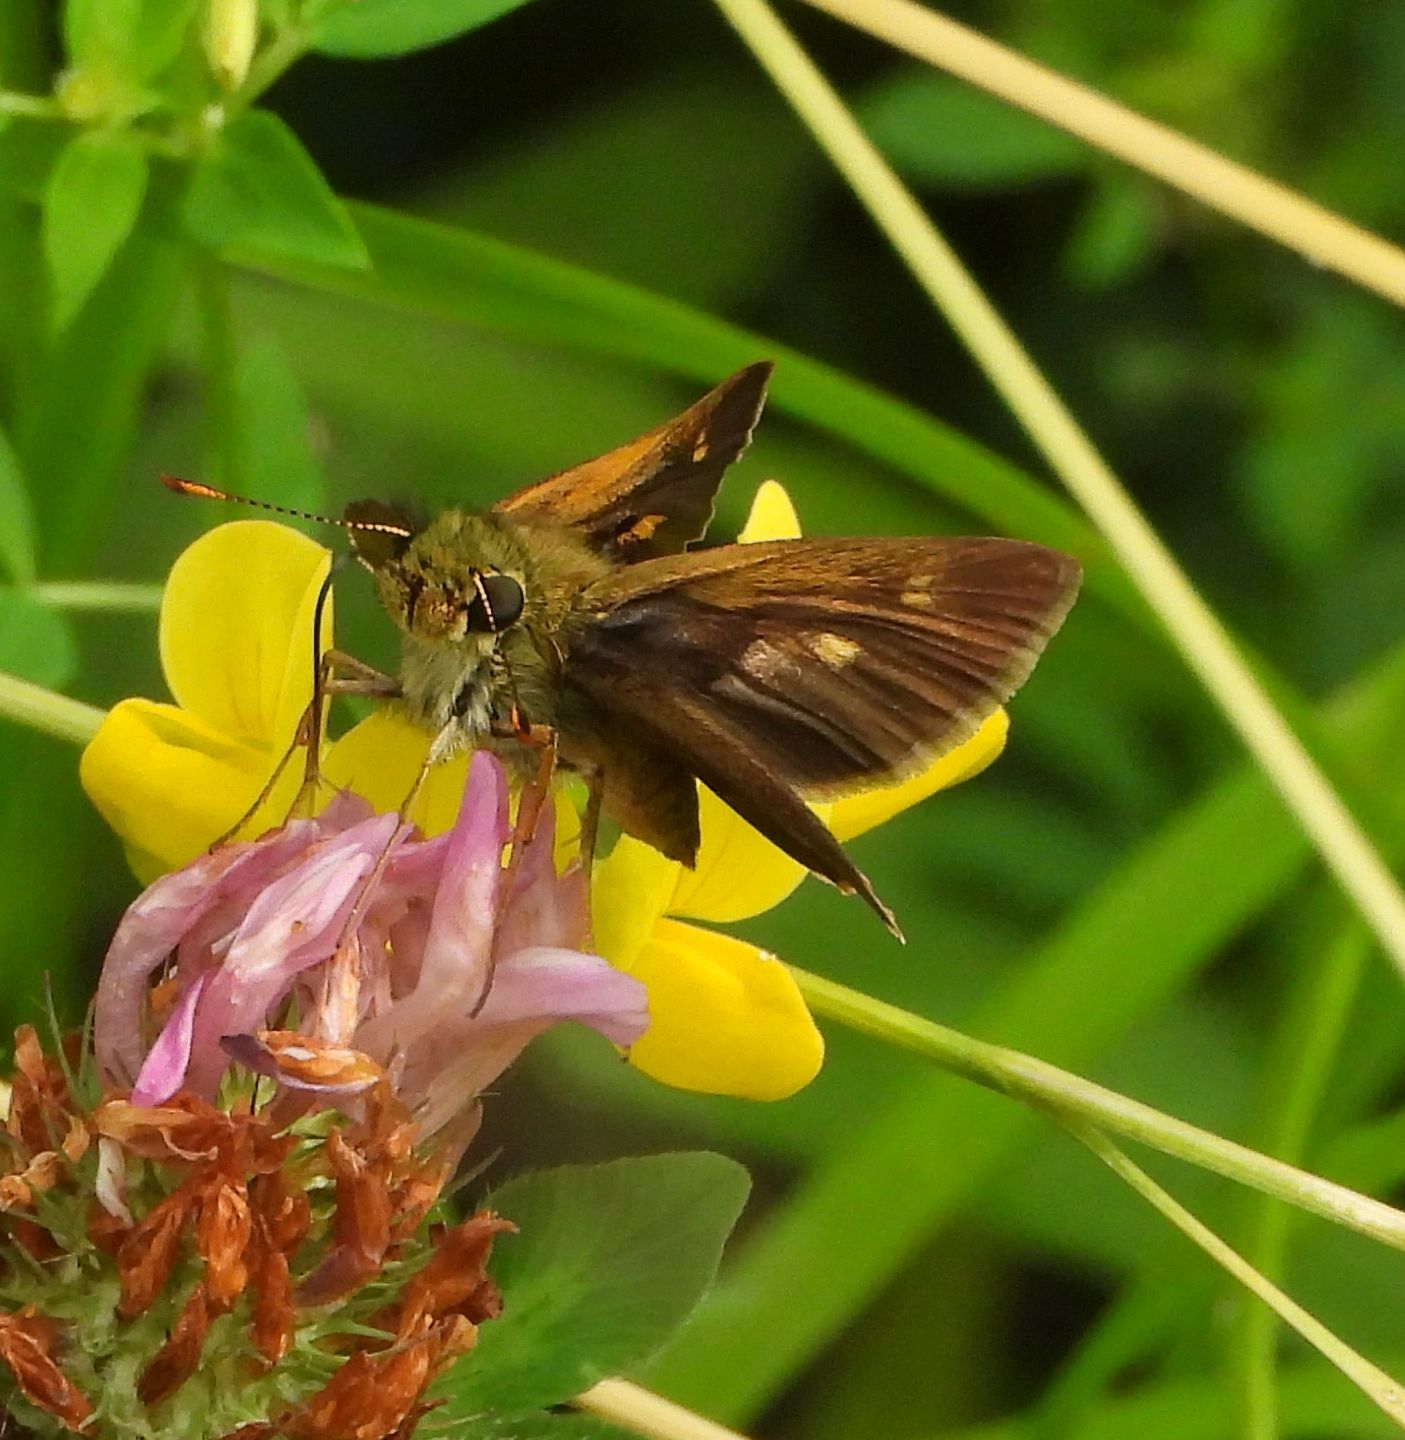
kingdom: Animalia
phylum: Arthropoda
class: Insecta
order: Lepidoptera
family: Hesperiidae
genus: Polites
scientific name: Polites egeremet
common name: Northern broken-dash
